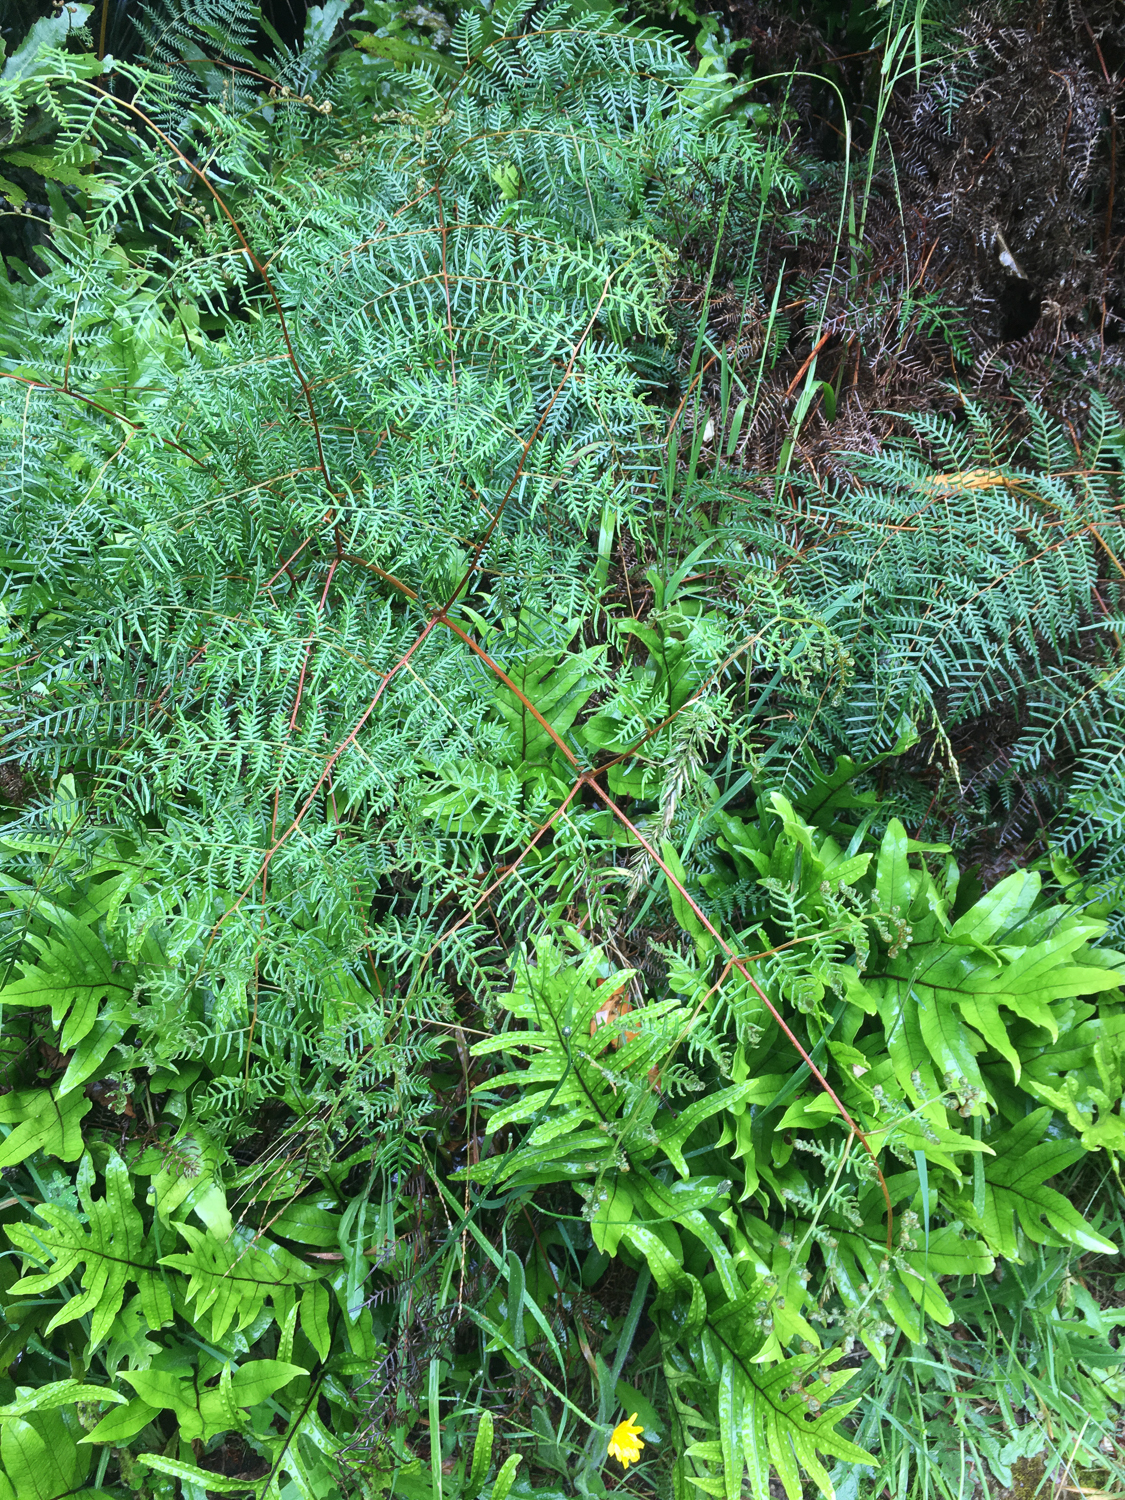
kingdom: Plantae
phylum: Tracheophyta
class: Polypodiopsida
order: Polypodiales
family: Dennstaedtiaceae
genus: Pteridium
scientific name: Pteridium esculentum
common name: Bracken fern
